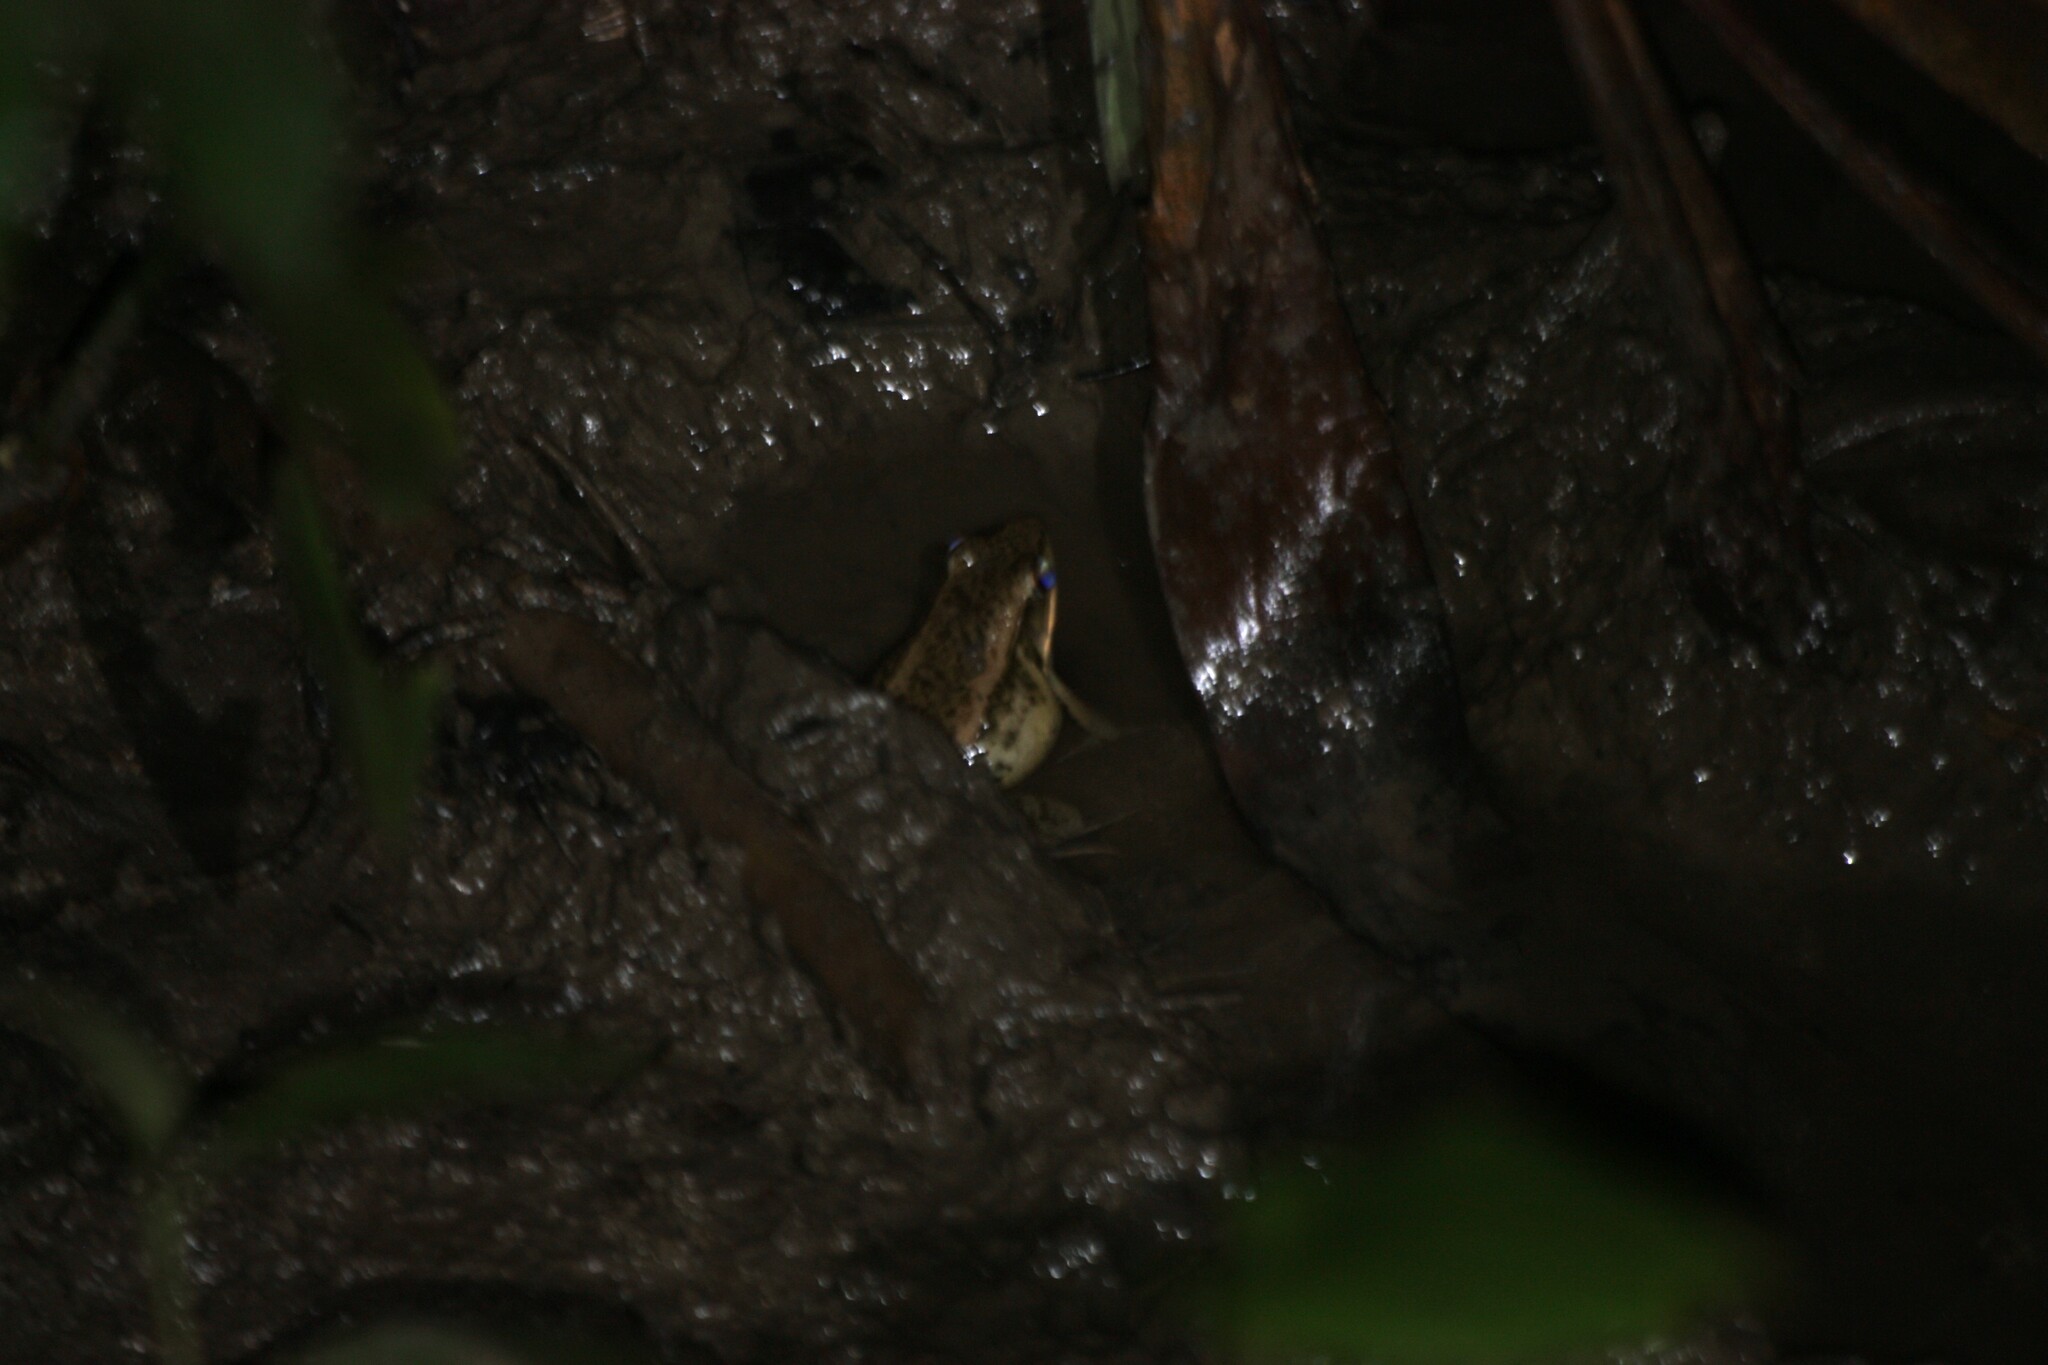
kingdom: Animalia
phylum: Chordata
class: Amphibia
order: Anura
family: Ranidae
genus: Nidirana
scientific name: Nidirana adenopleura
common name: Olive frog
